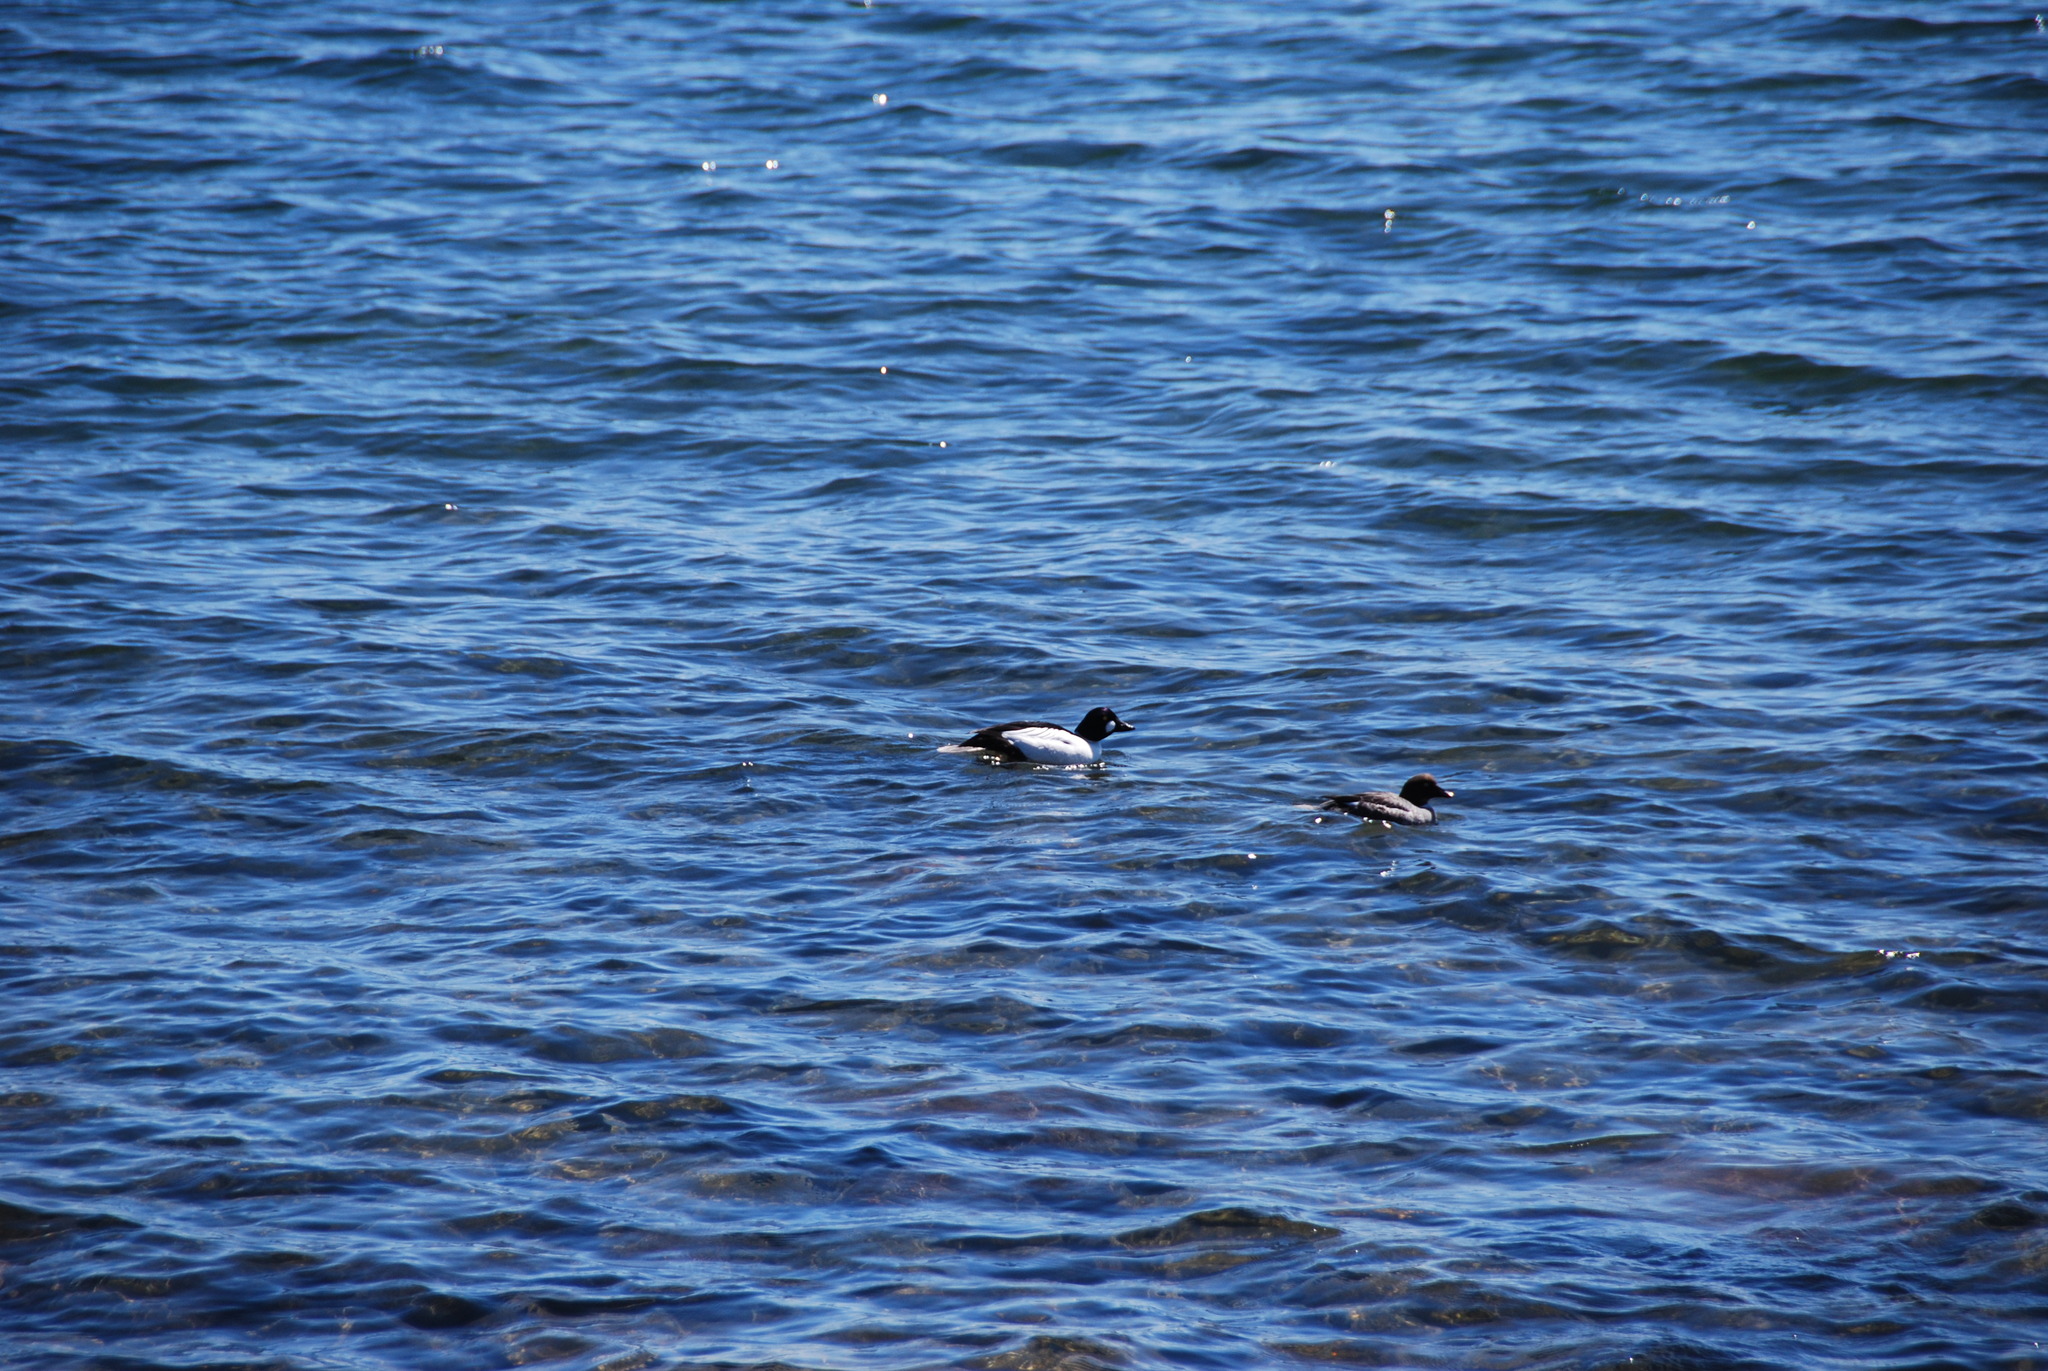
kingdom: Animalia
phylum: Chordata
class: Aves
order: Anseriformes
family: Anatidae
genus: Bucephala
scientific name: Bucephala clangula
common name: Common goldeneye
